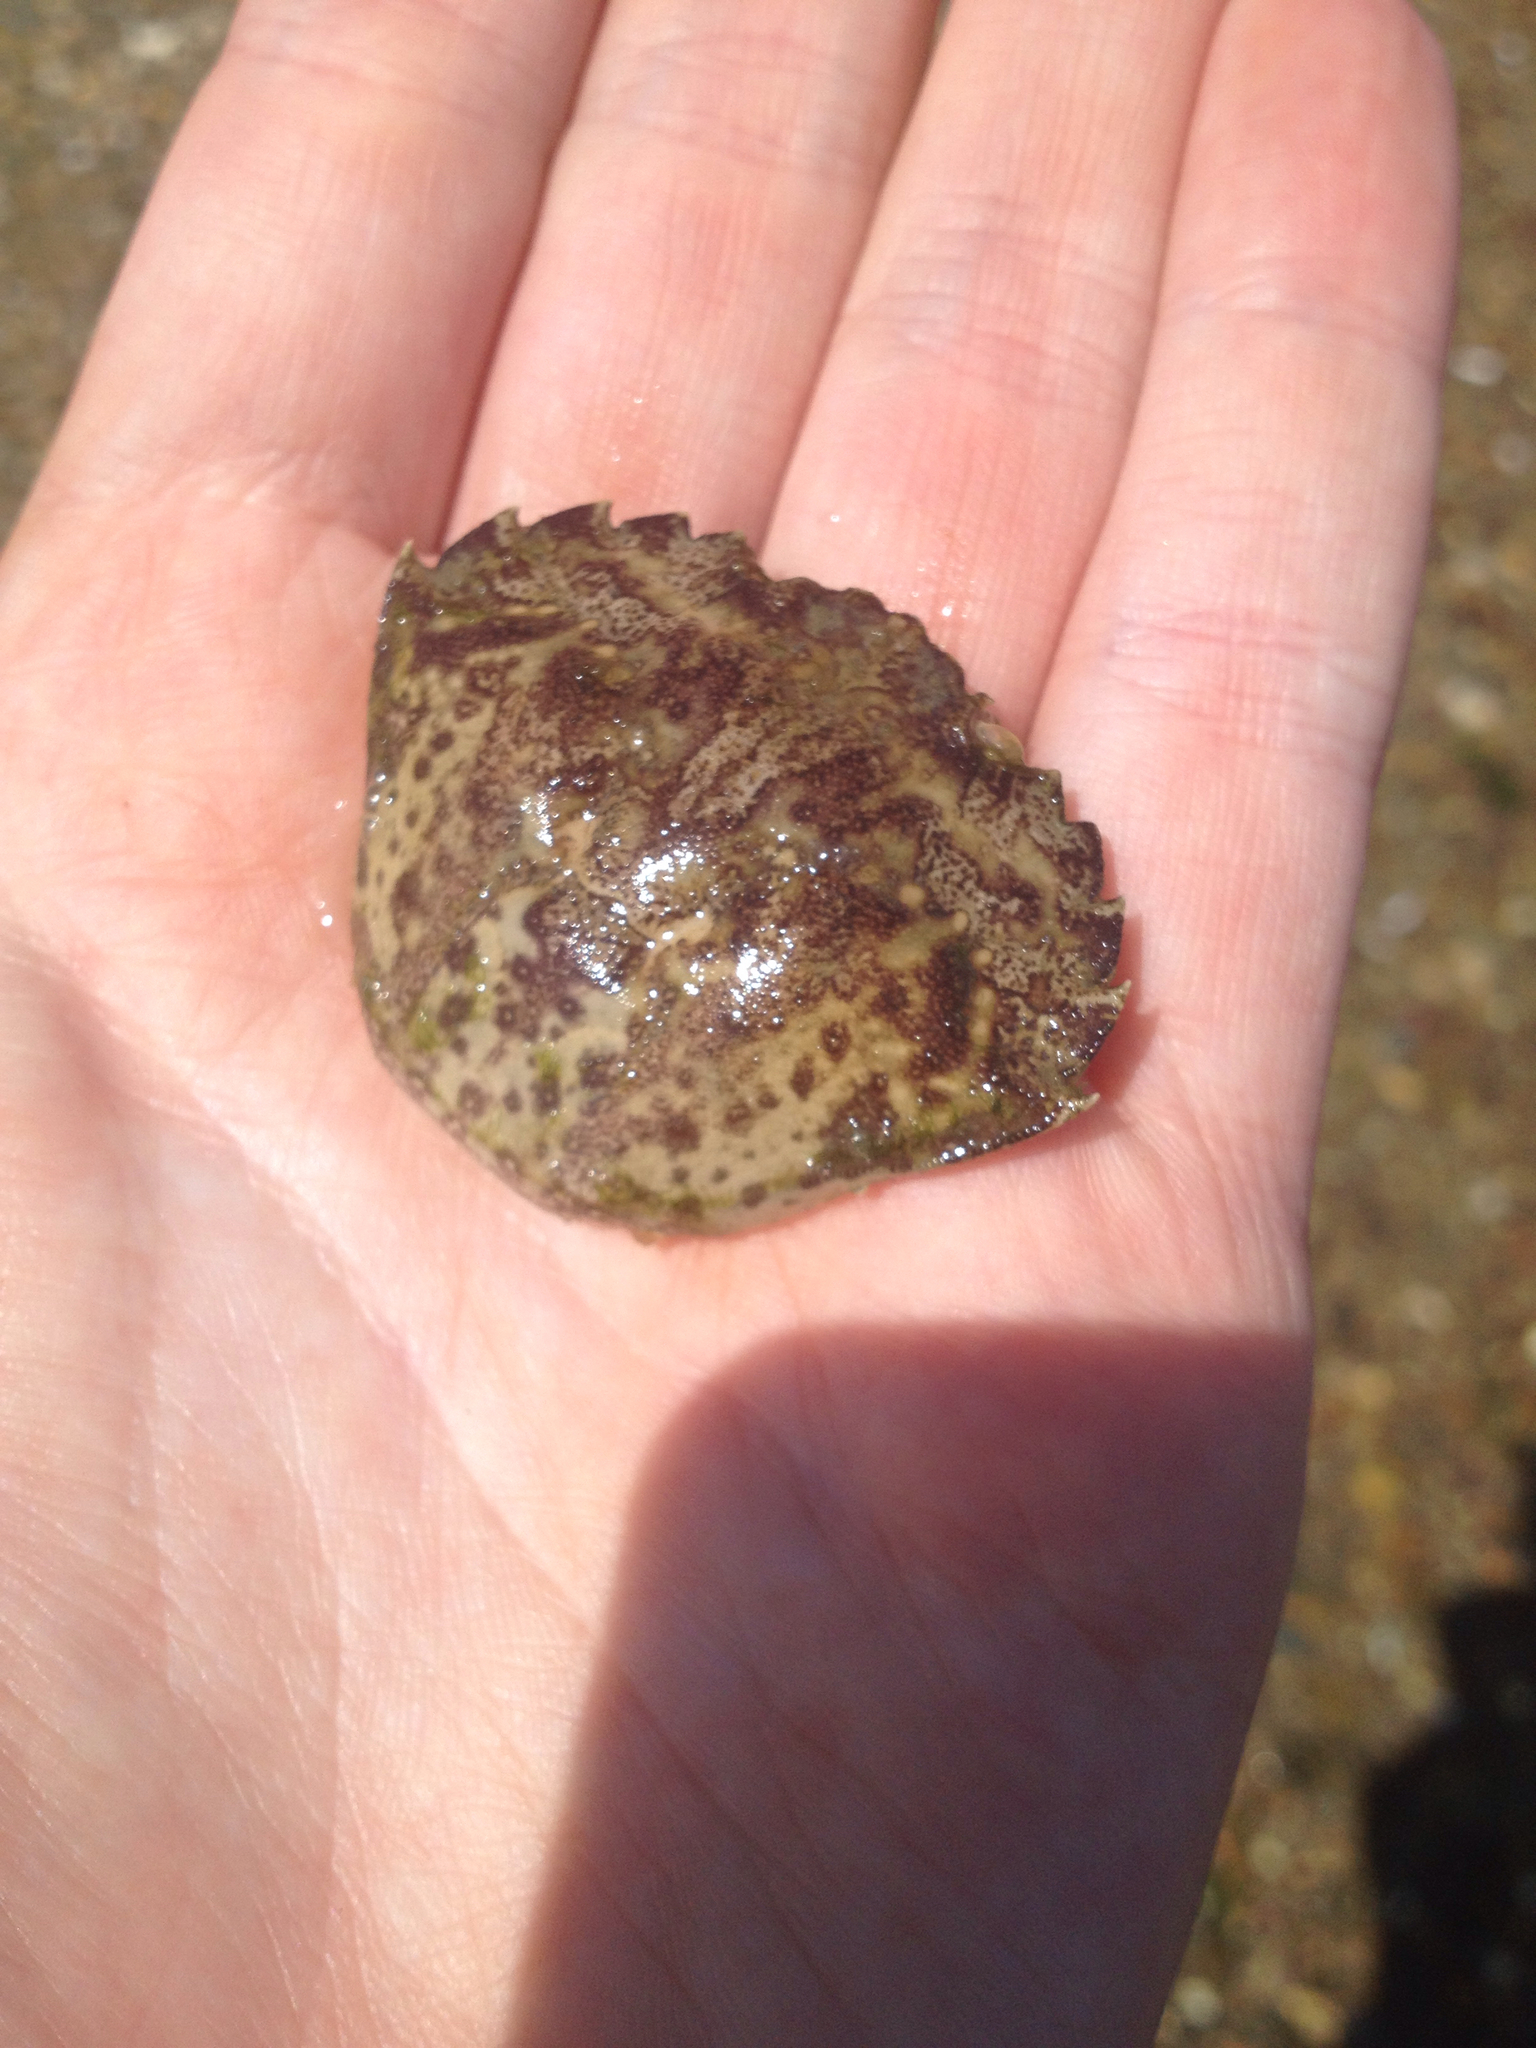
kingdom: Animalia
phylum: Arthropoda
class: Malacostraca
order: Decapoda
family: Carcinidae
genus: Carcinus
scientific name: Carcinus maenas
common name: European green crab
